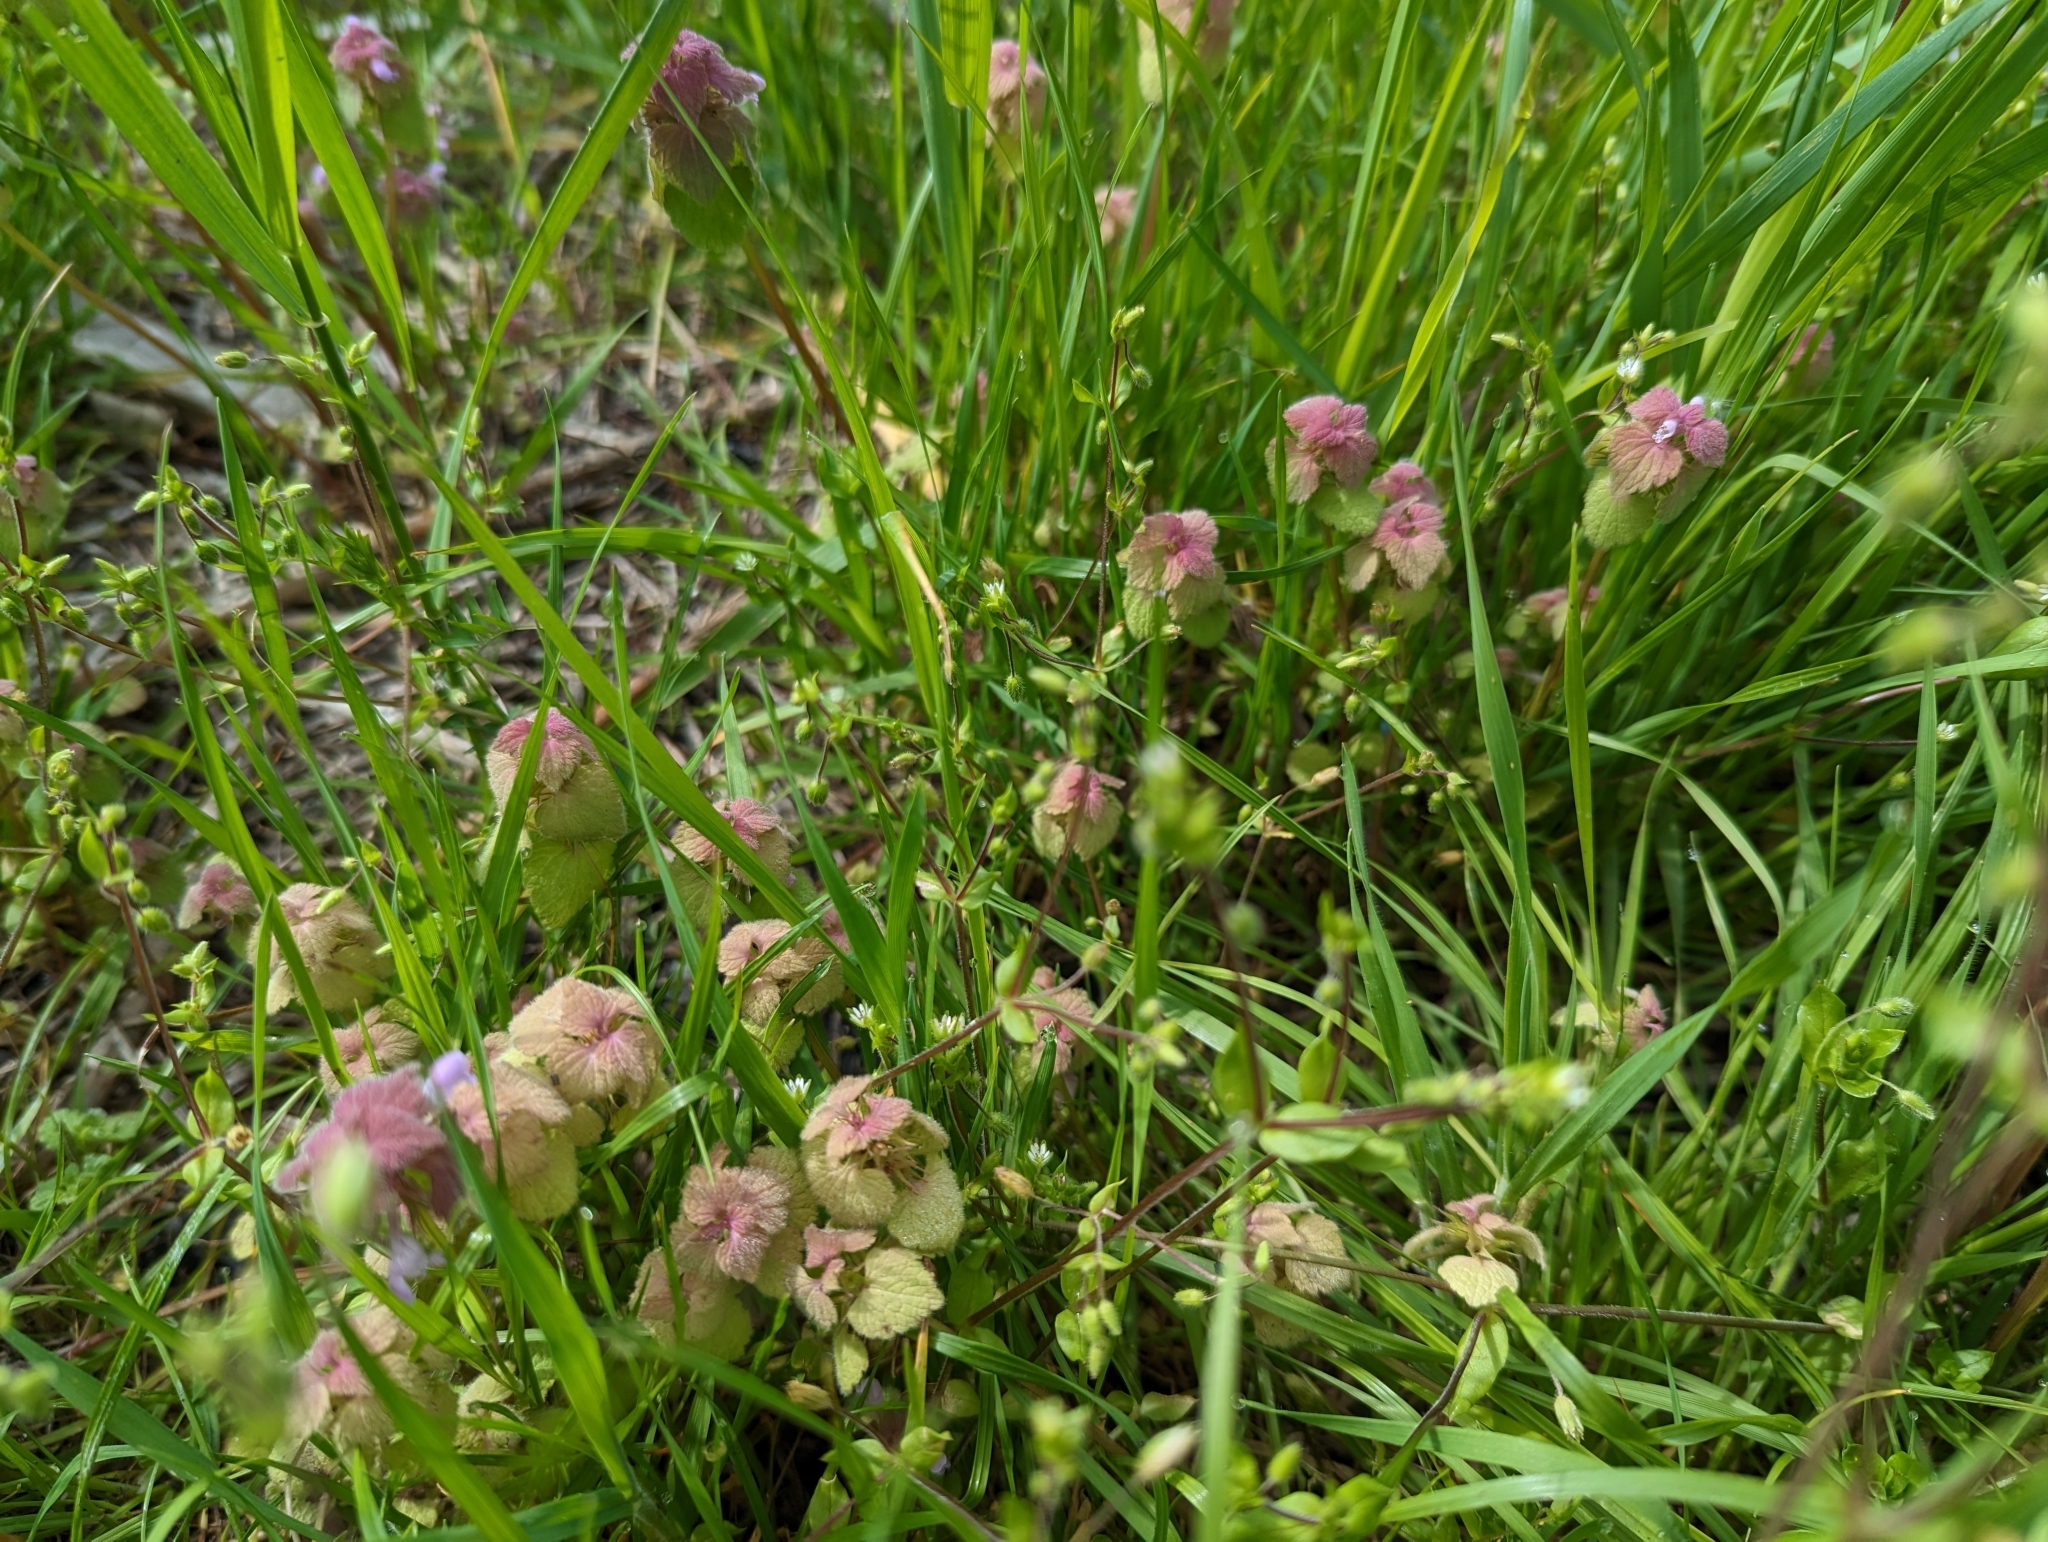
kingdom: Plantae
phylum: Tracheophyta
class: Magnoliopsida
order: Lamiales
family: Lamiaceae
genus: Lamium
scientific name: Lamium purpureum
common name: Red dead-nettle
